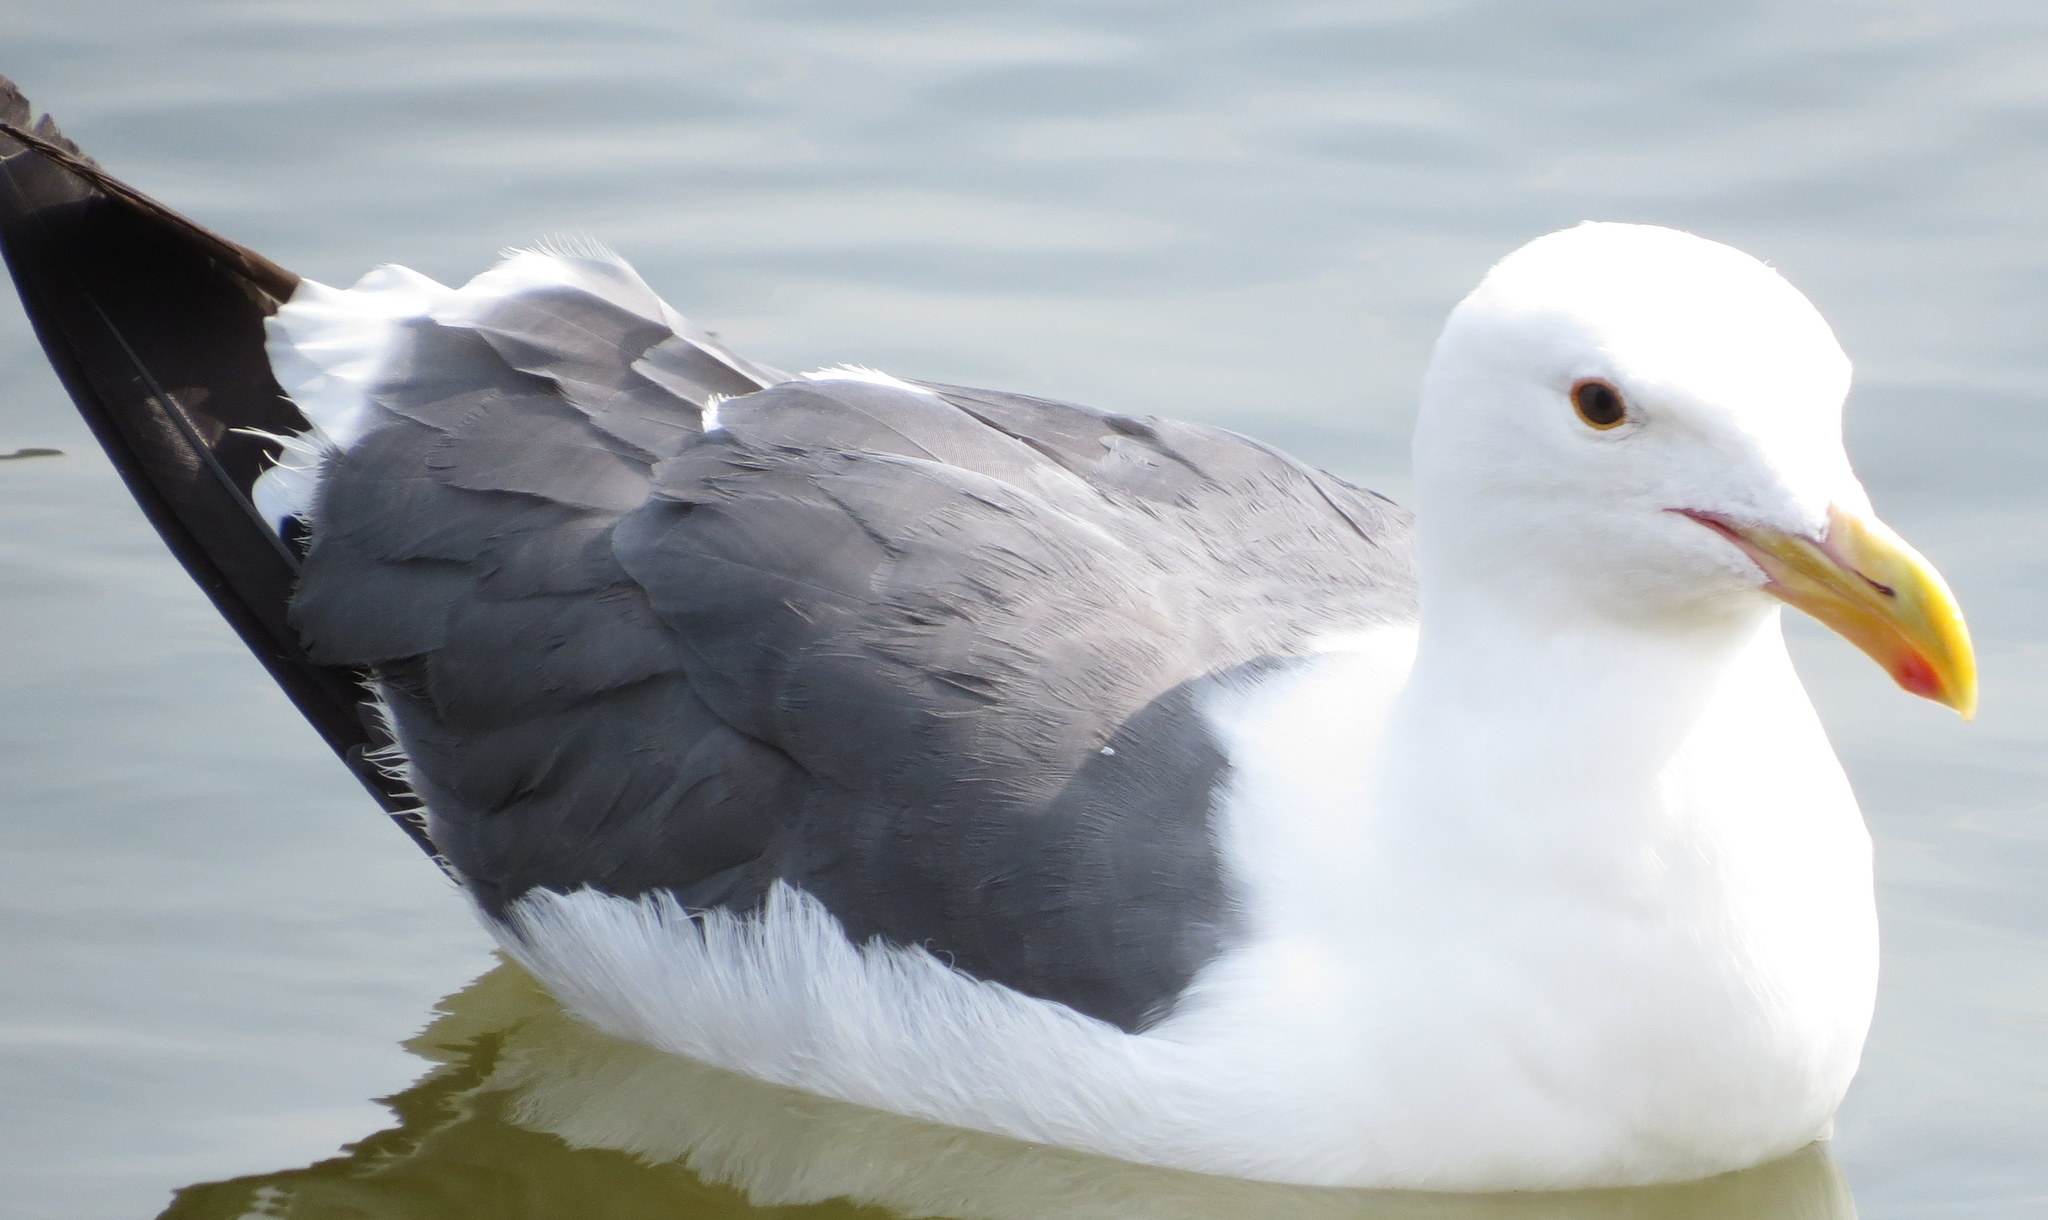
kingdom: Animalia
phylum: Chordata
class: Aves
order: Charadriiformes
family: Laridae
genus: Larus
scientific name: Larus occidentalis
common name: Western gull
